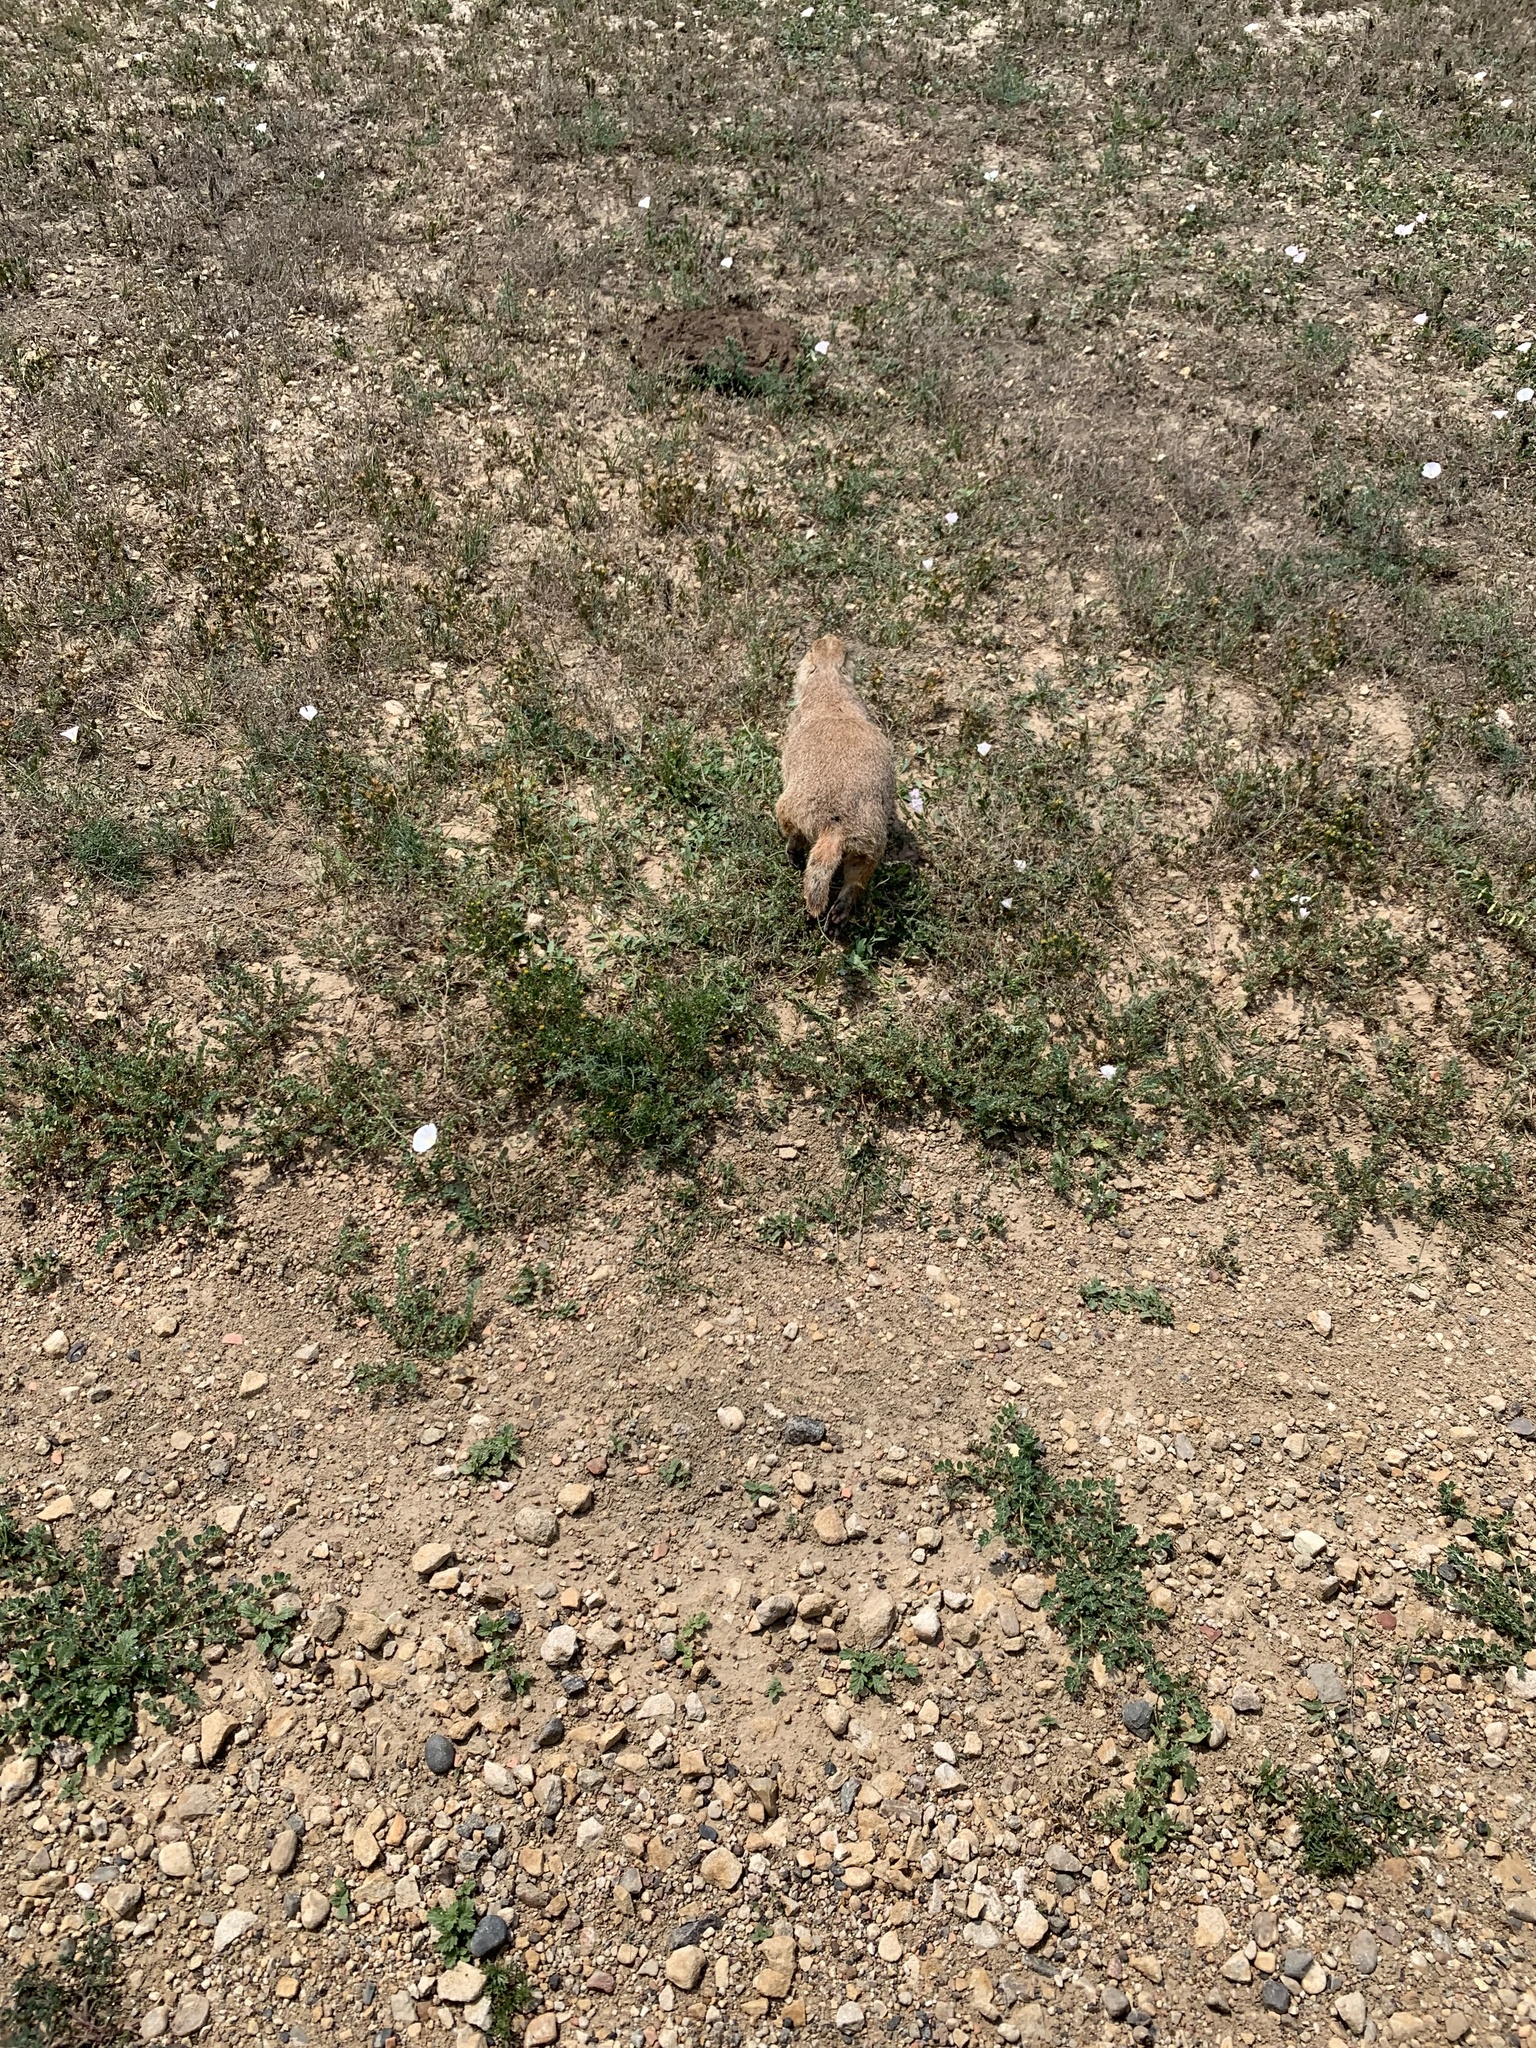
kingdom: Animalia
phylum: Chordata
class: Mammalia
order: Rodentia
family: Sciuridae
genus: Cynomys
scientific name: Cynomys ludovicianus
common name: Black-tailed prairie dog
